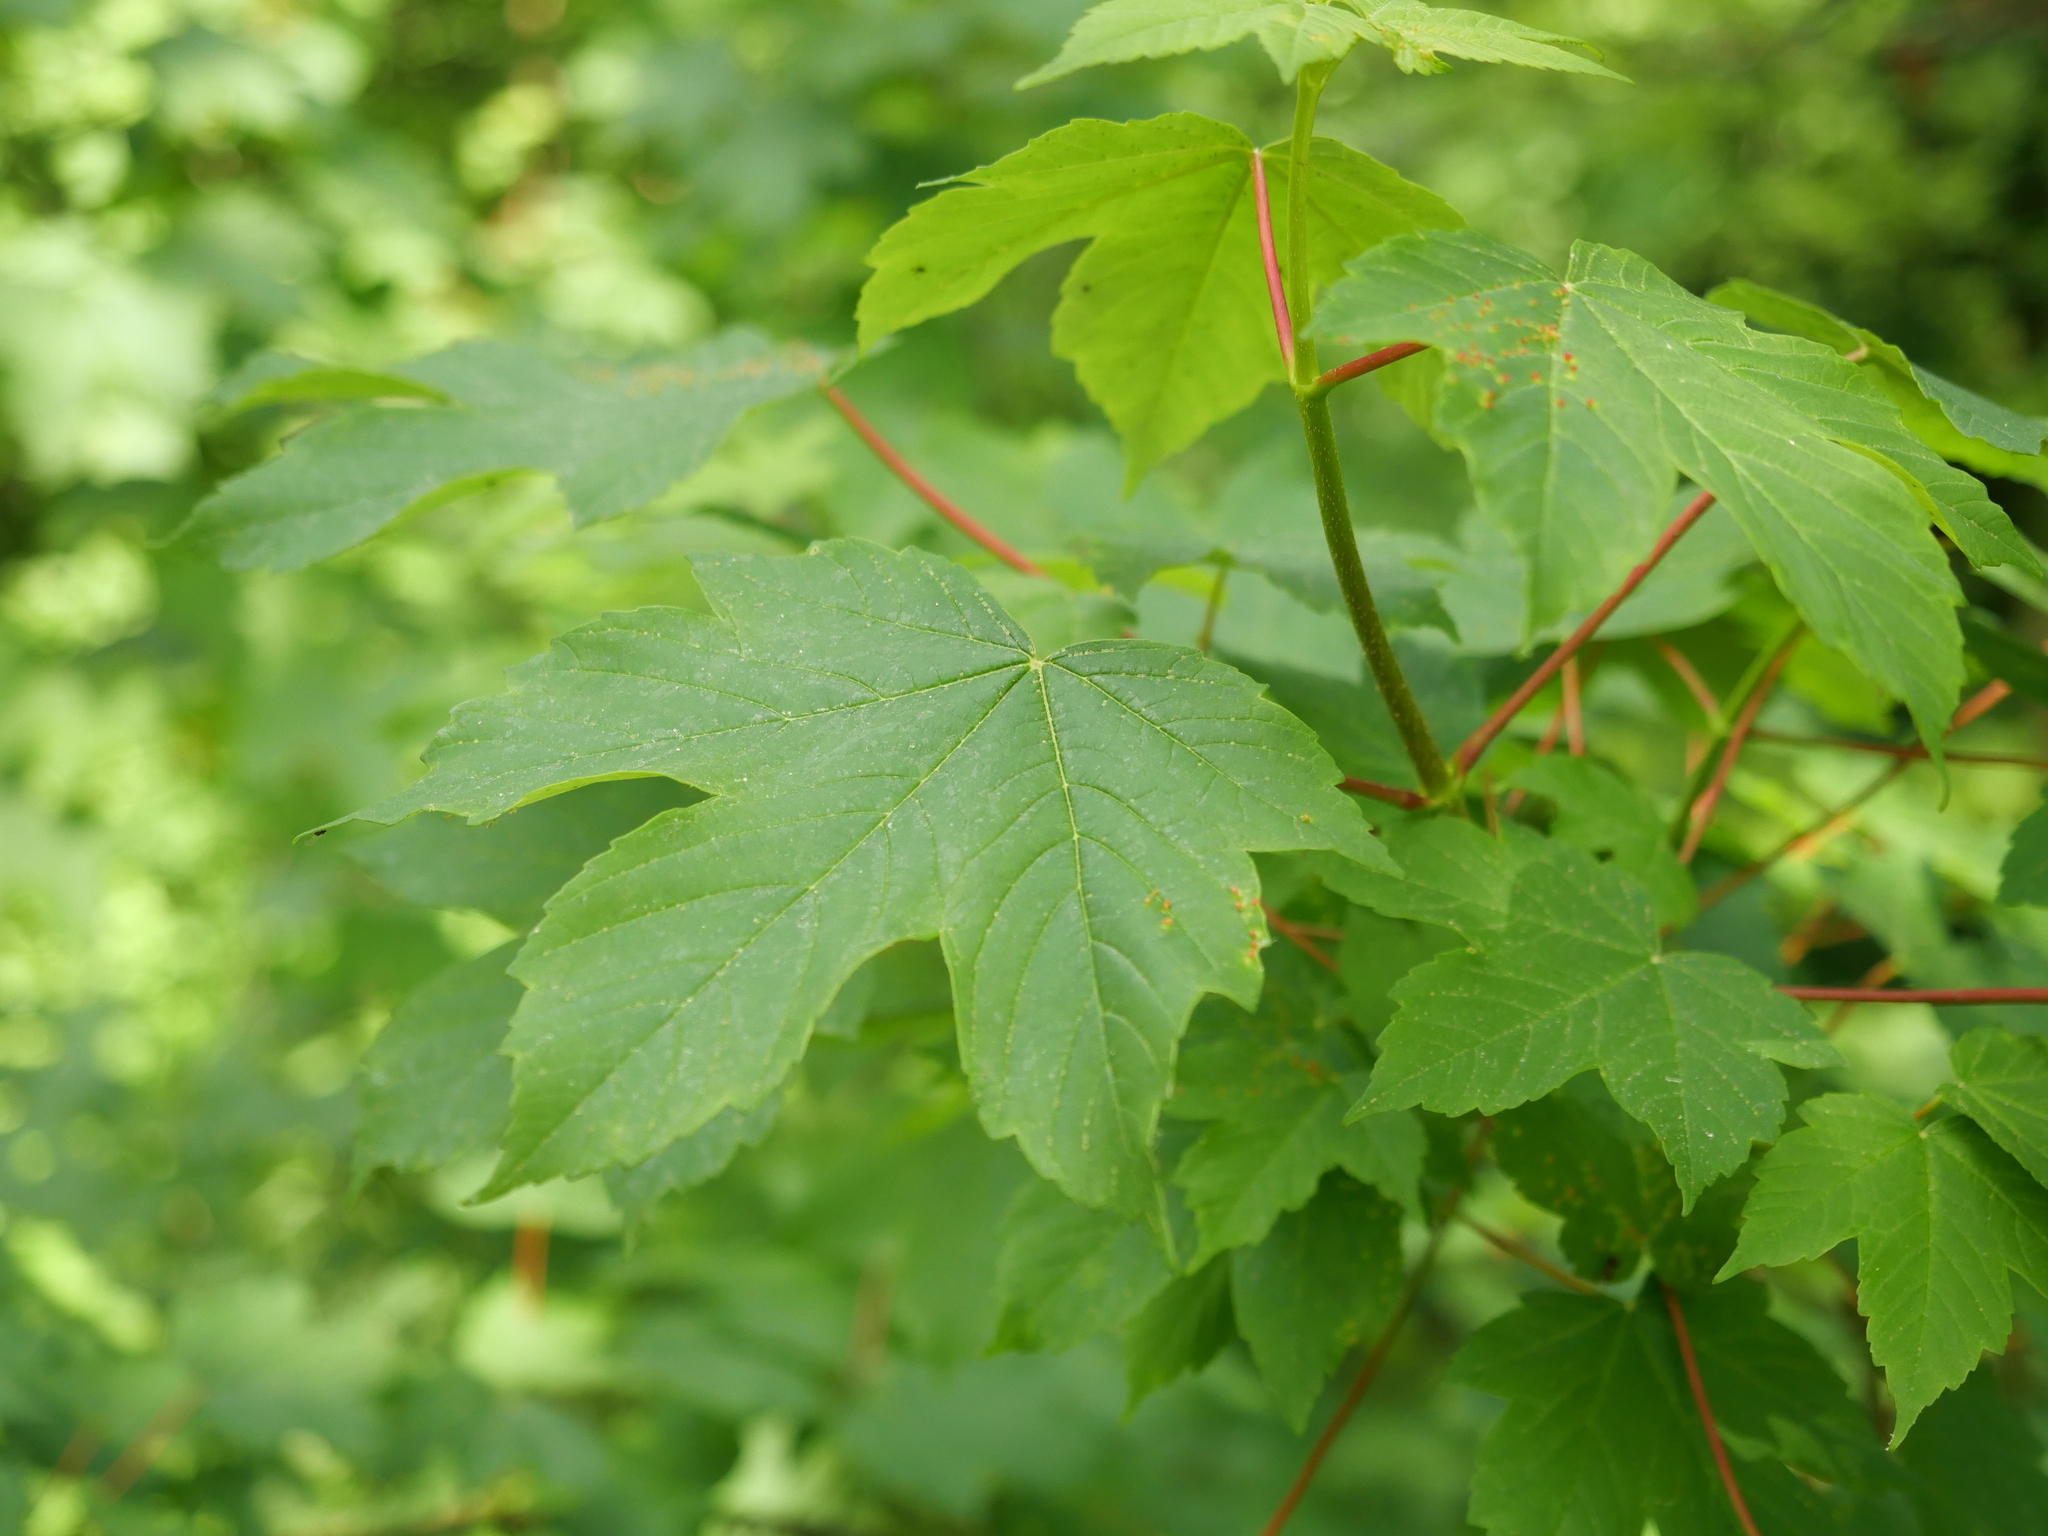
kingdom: Plantae
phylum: Tracheophyta
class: Magnoliopsida
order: Sapindales
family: Sapindaceae
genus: Acer
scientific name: Acer pseudoplatanus
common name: Sycamore
